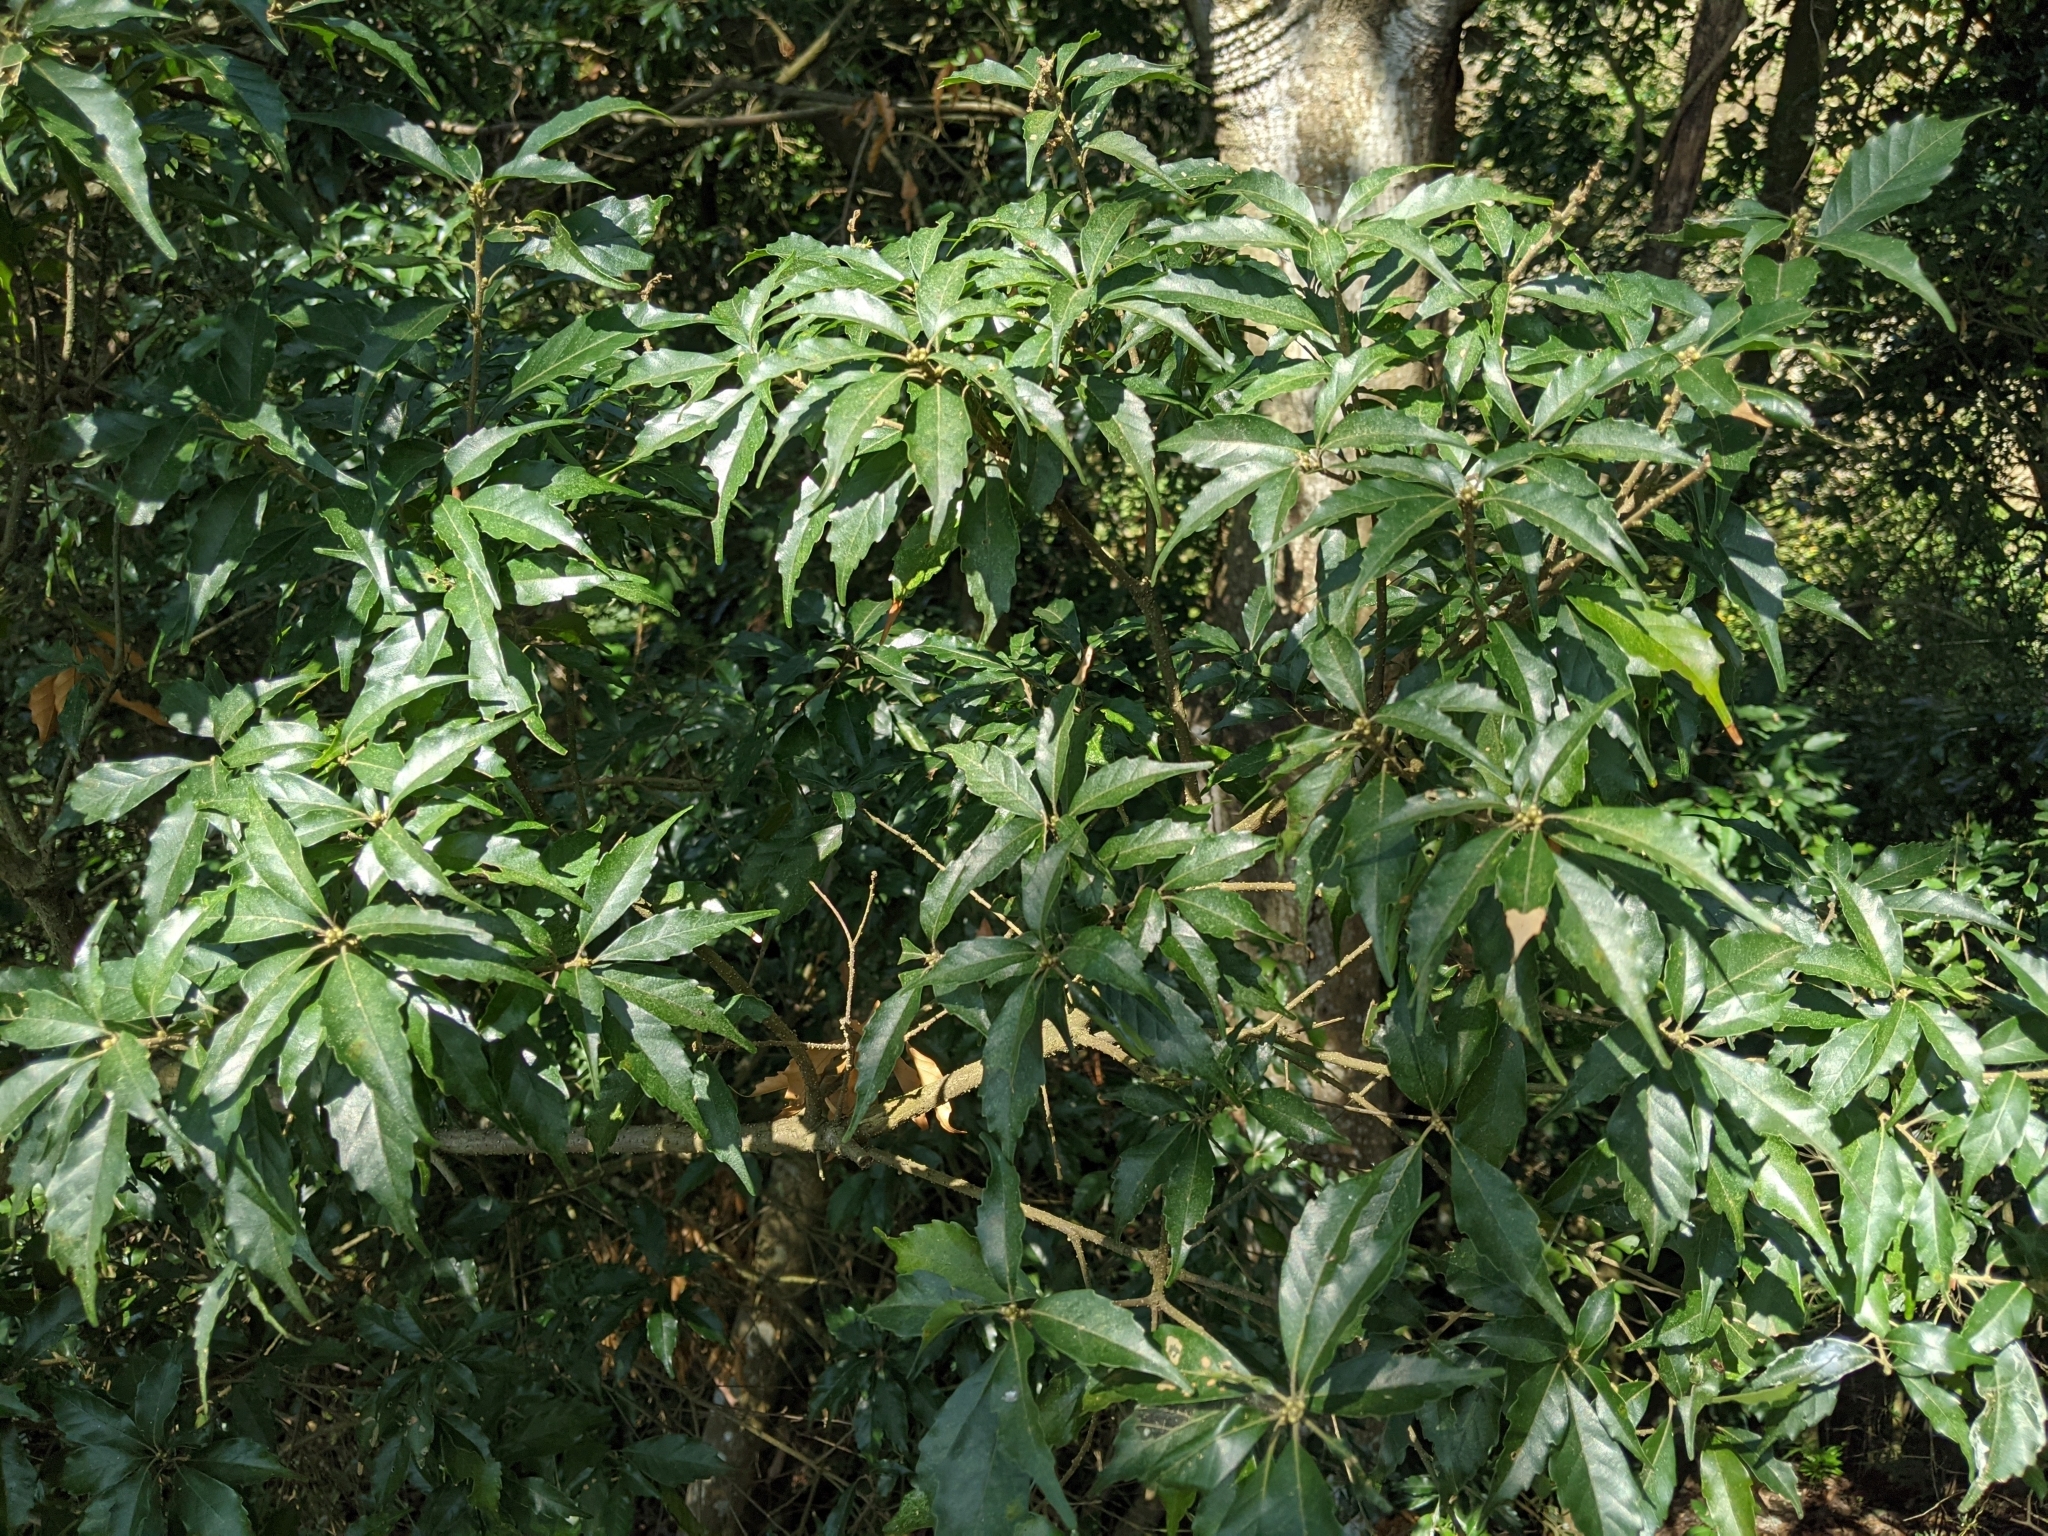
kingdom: Plantae
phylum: Tracheophyta
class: Magnoliopsida
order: Fagales
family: Fagaceae
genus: Lithocarpus
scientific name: Lithocarpus konishii
